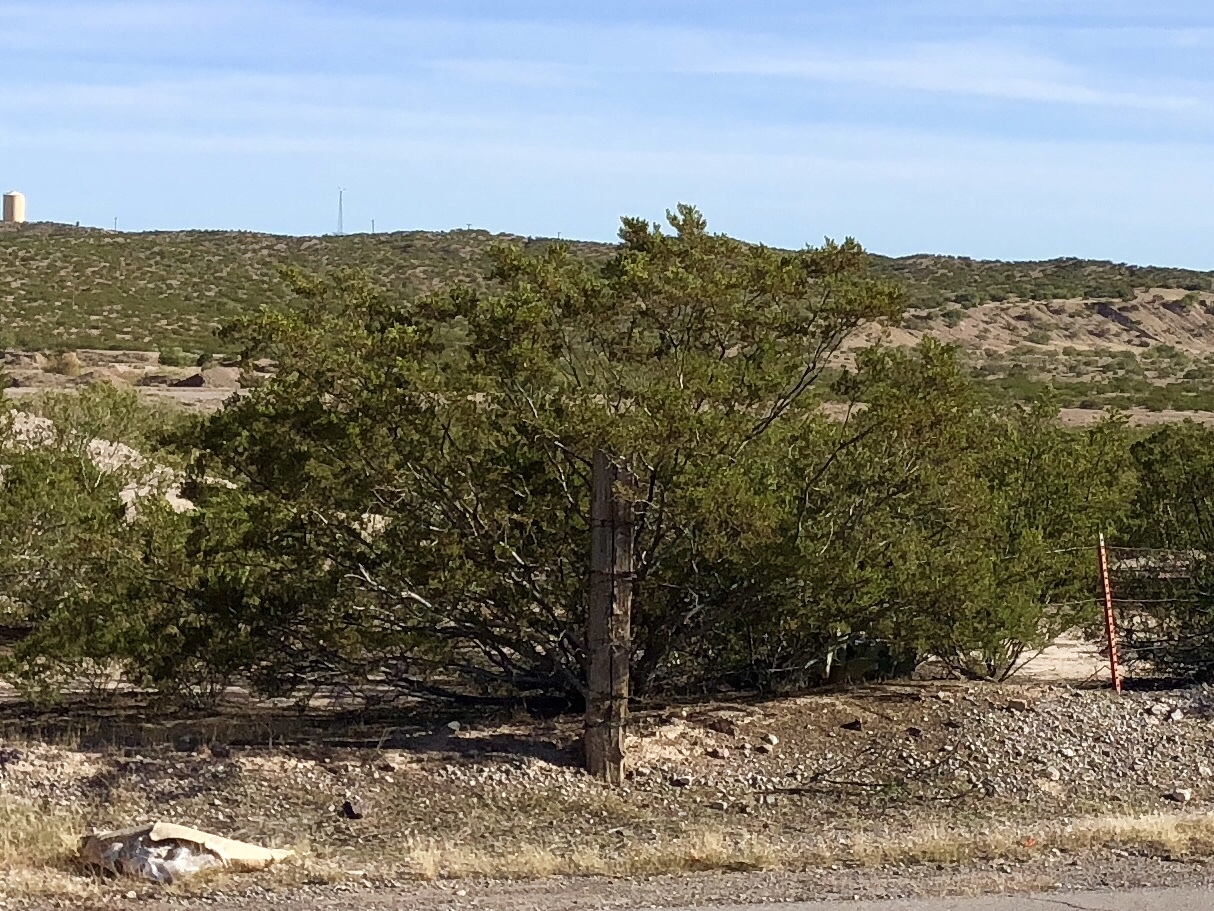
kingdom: Plantae
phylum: Tracheophyta
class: Magnoliopsida
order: Zygophyllales
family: Zygophyllaceae
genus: Larrea
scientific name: Larrea tridentata
